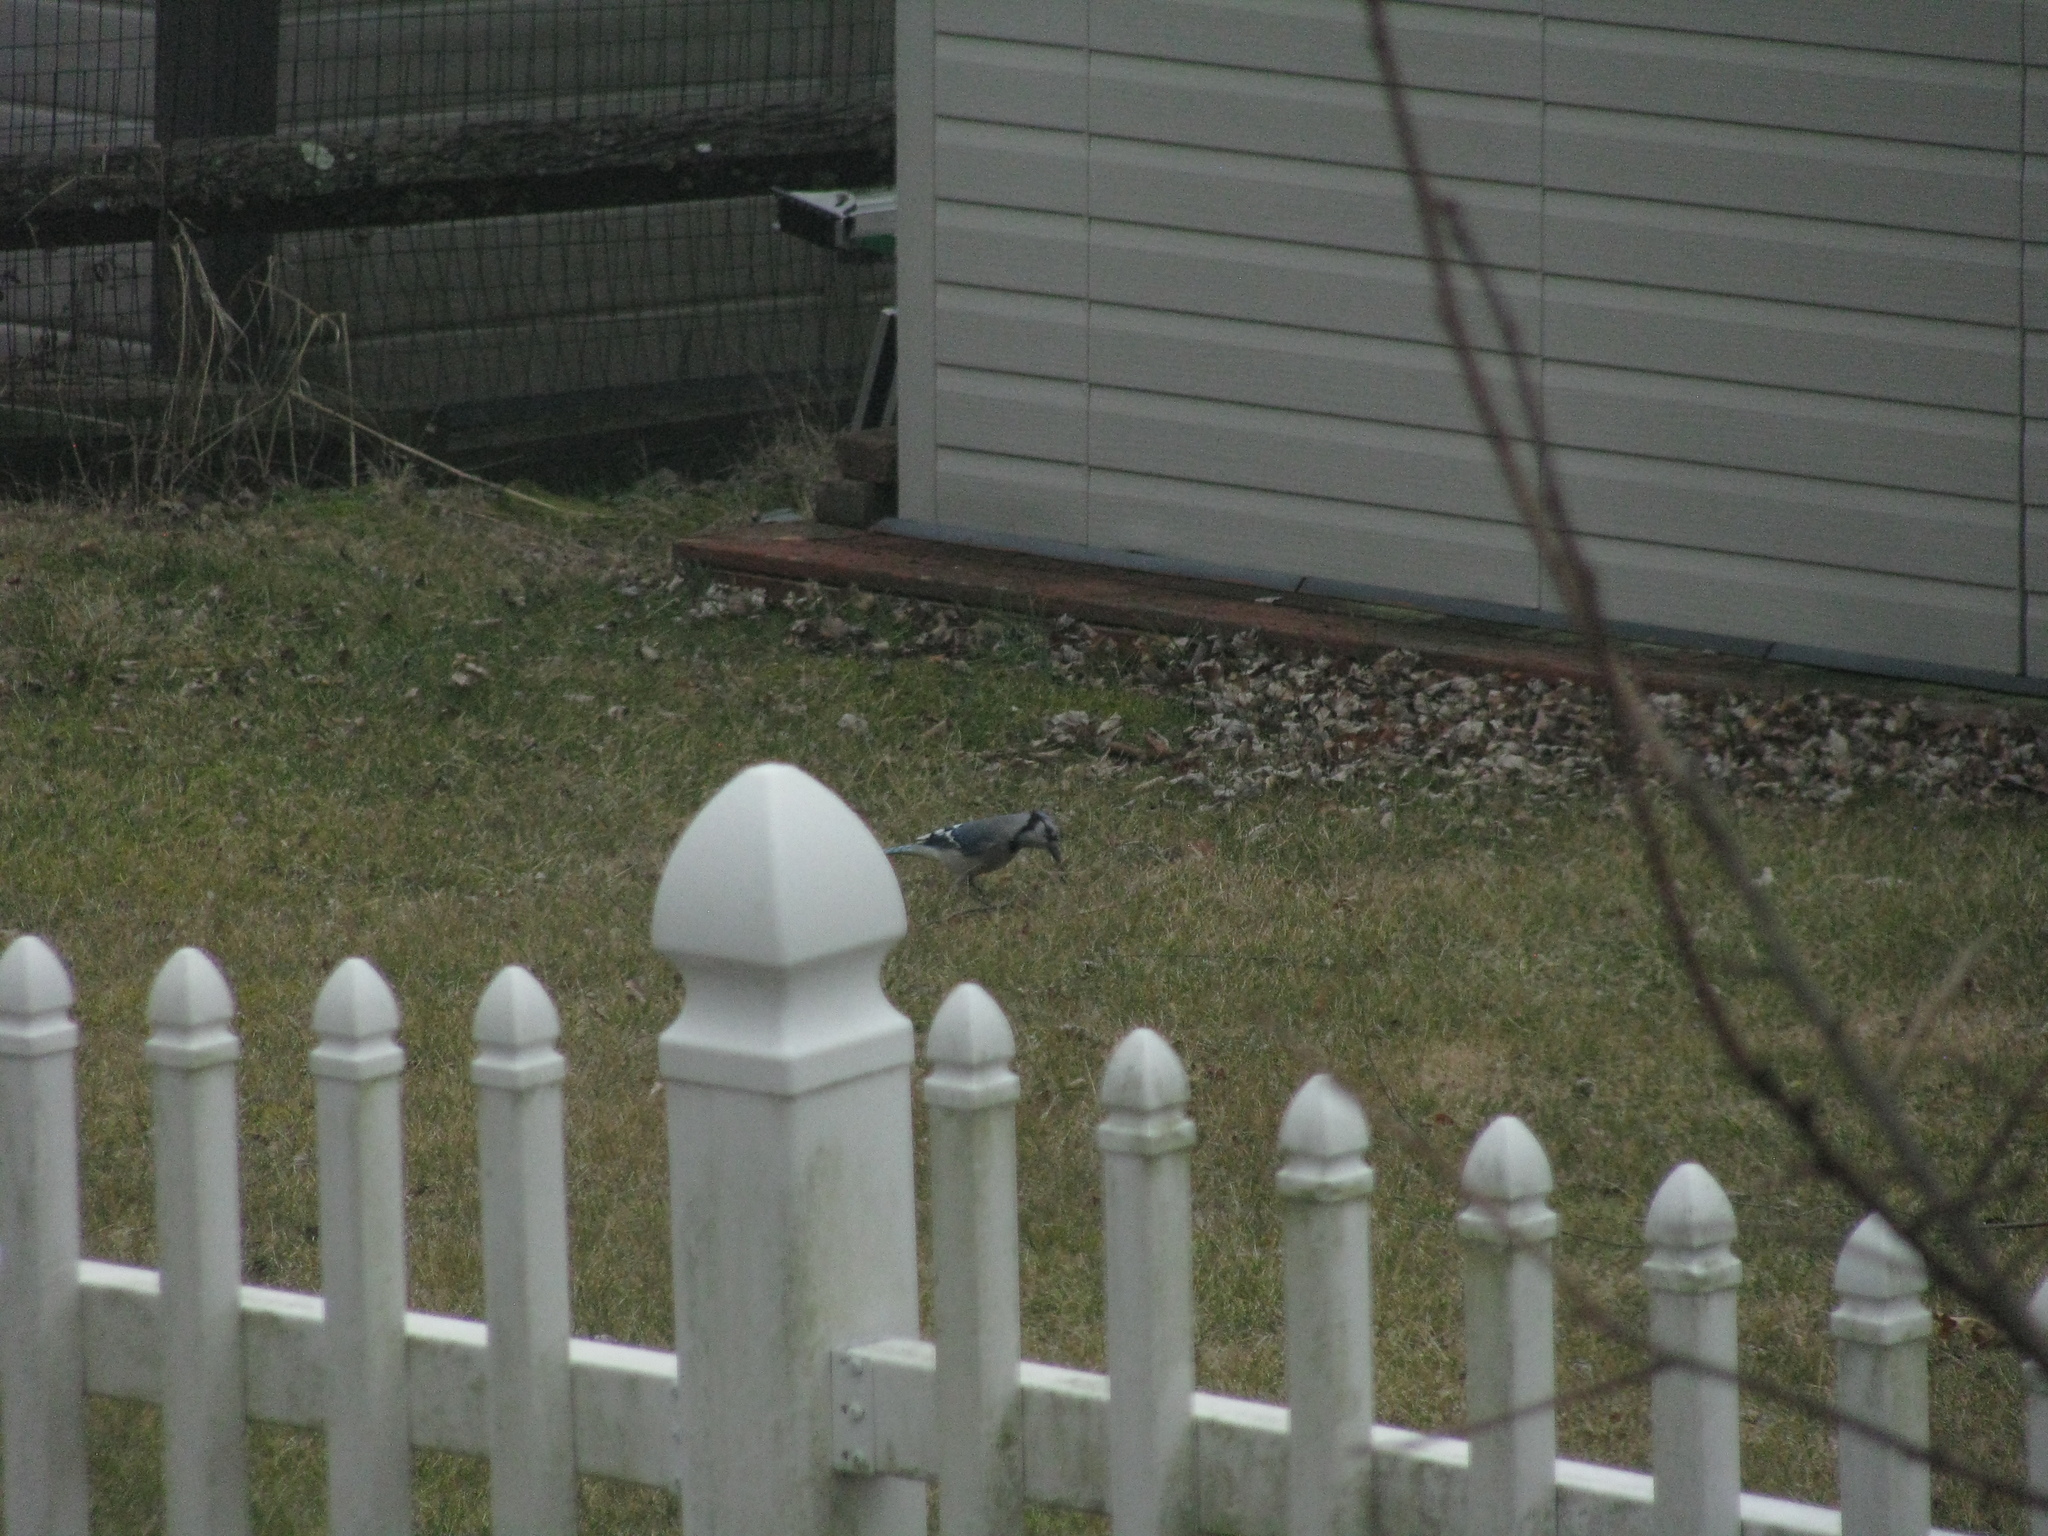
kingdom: Animalia
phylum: Chordata
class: Aves
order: Passeriformes
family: Corvidae
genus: Cyanocitta
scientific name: Cyanocitta cristata
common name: Blue jay
